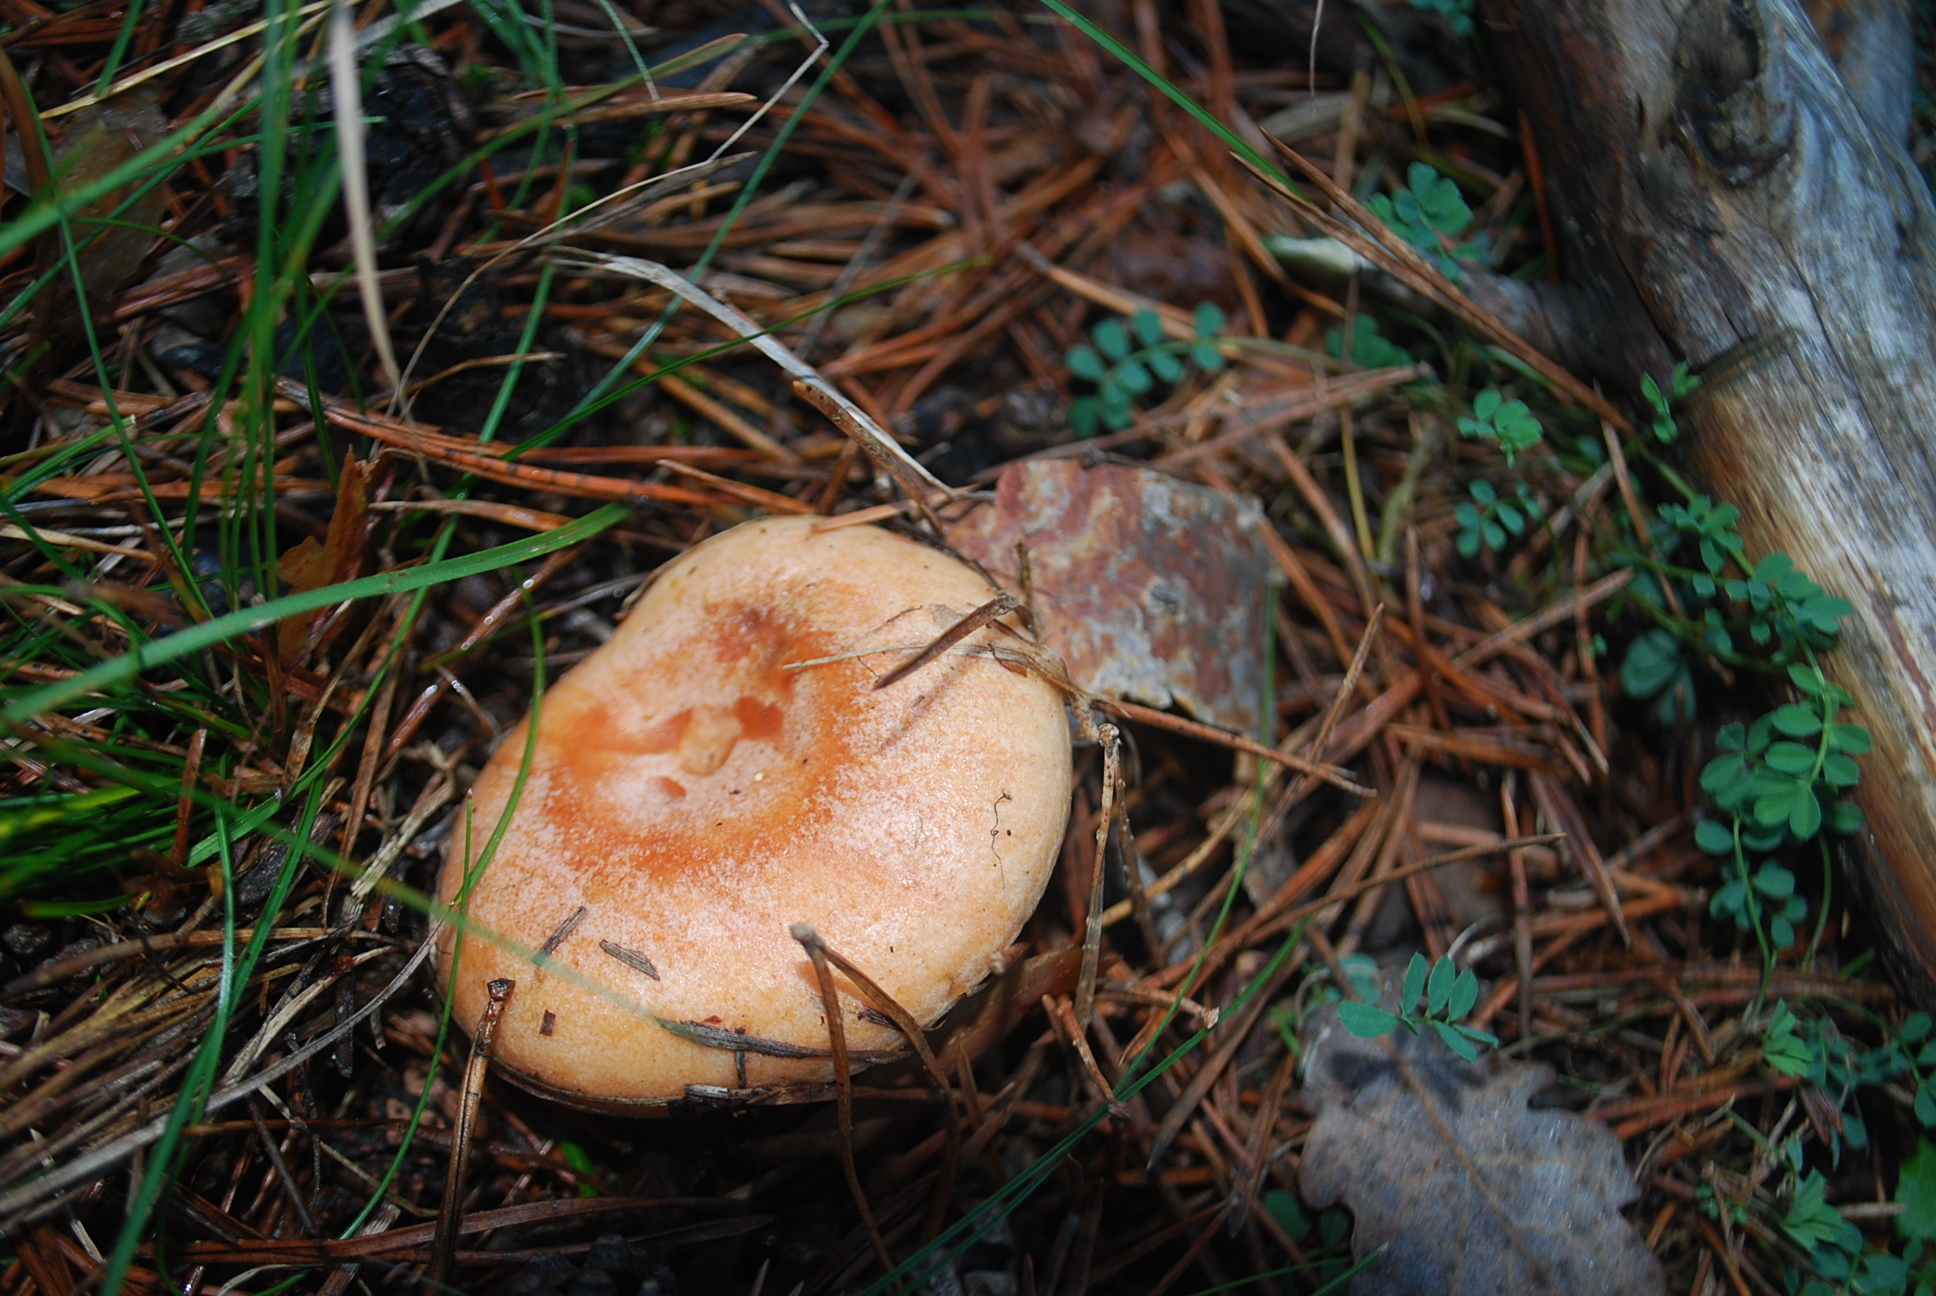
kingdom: Fungi
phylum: Basidiomycota
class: Agaricomycetes
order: Russulales
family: Russulaceae
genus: Lactarius
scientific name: Lactarius deliciosus
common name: Saffron milk-cap
